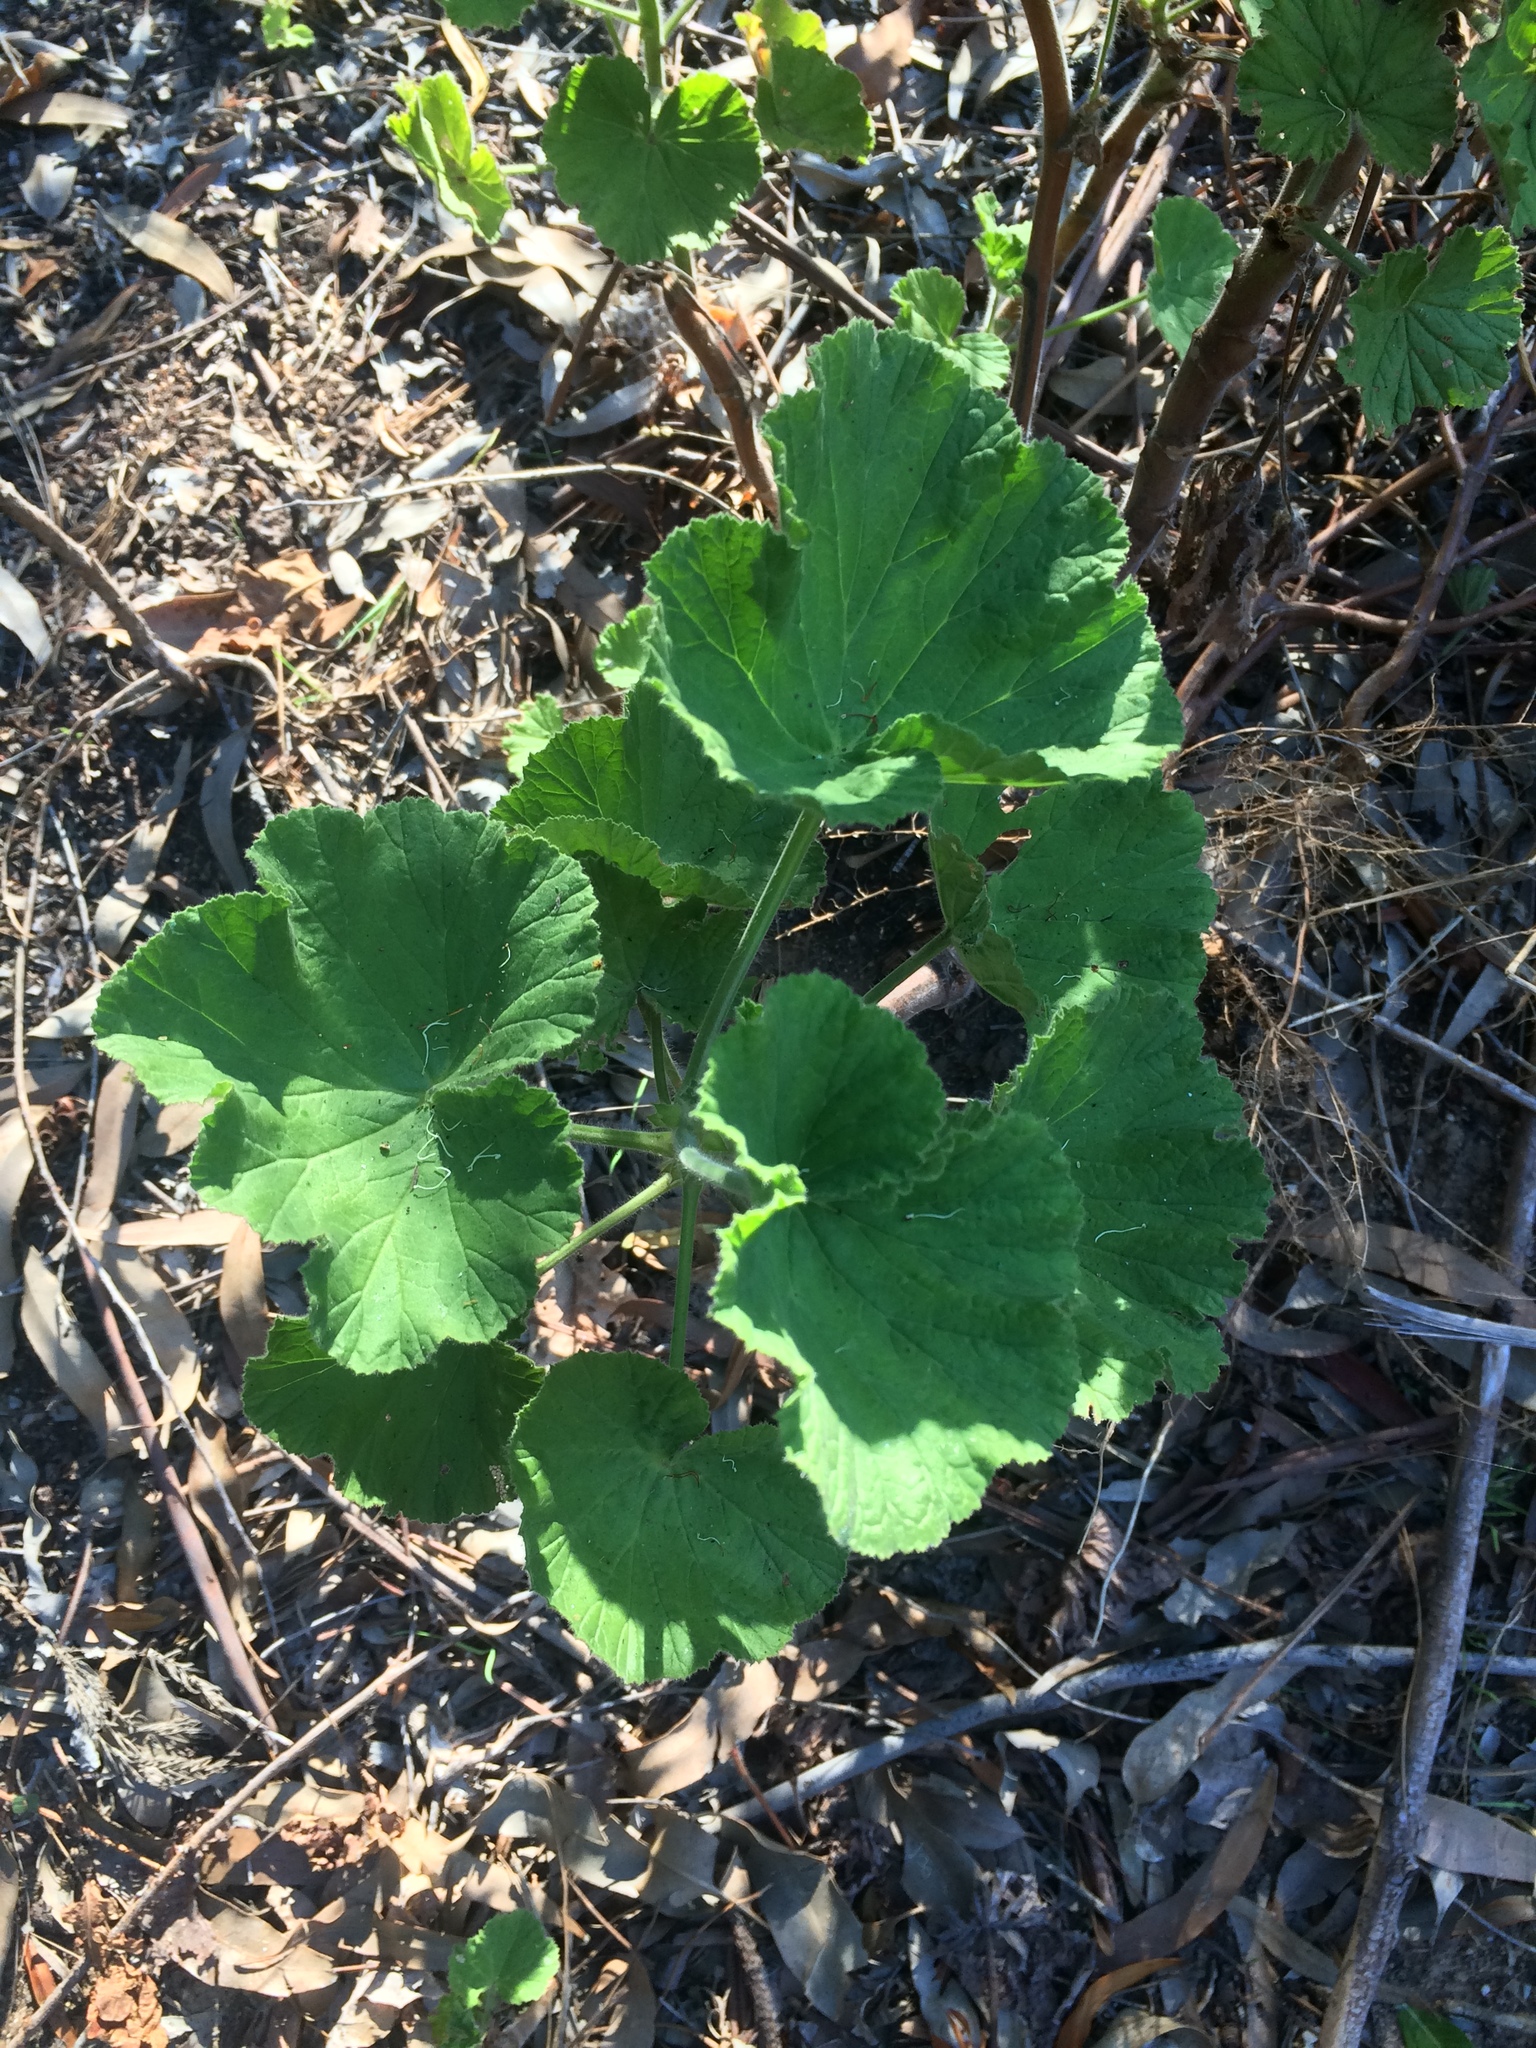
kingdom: Plantae
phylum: Tracheophyta
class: Magnoliopsida
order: Geraniales
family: Geraniaceae
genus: Pelargonium
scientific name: Pelargonium cucullatum
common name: Tree pelargonium
